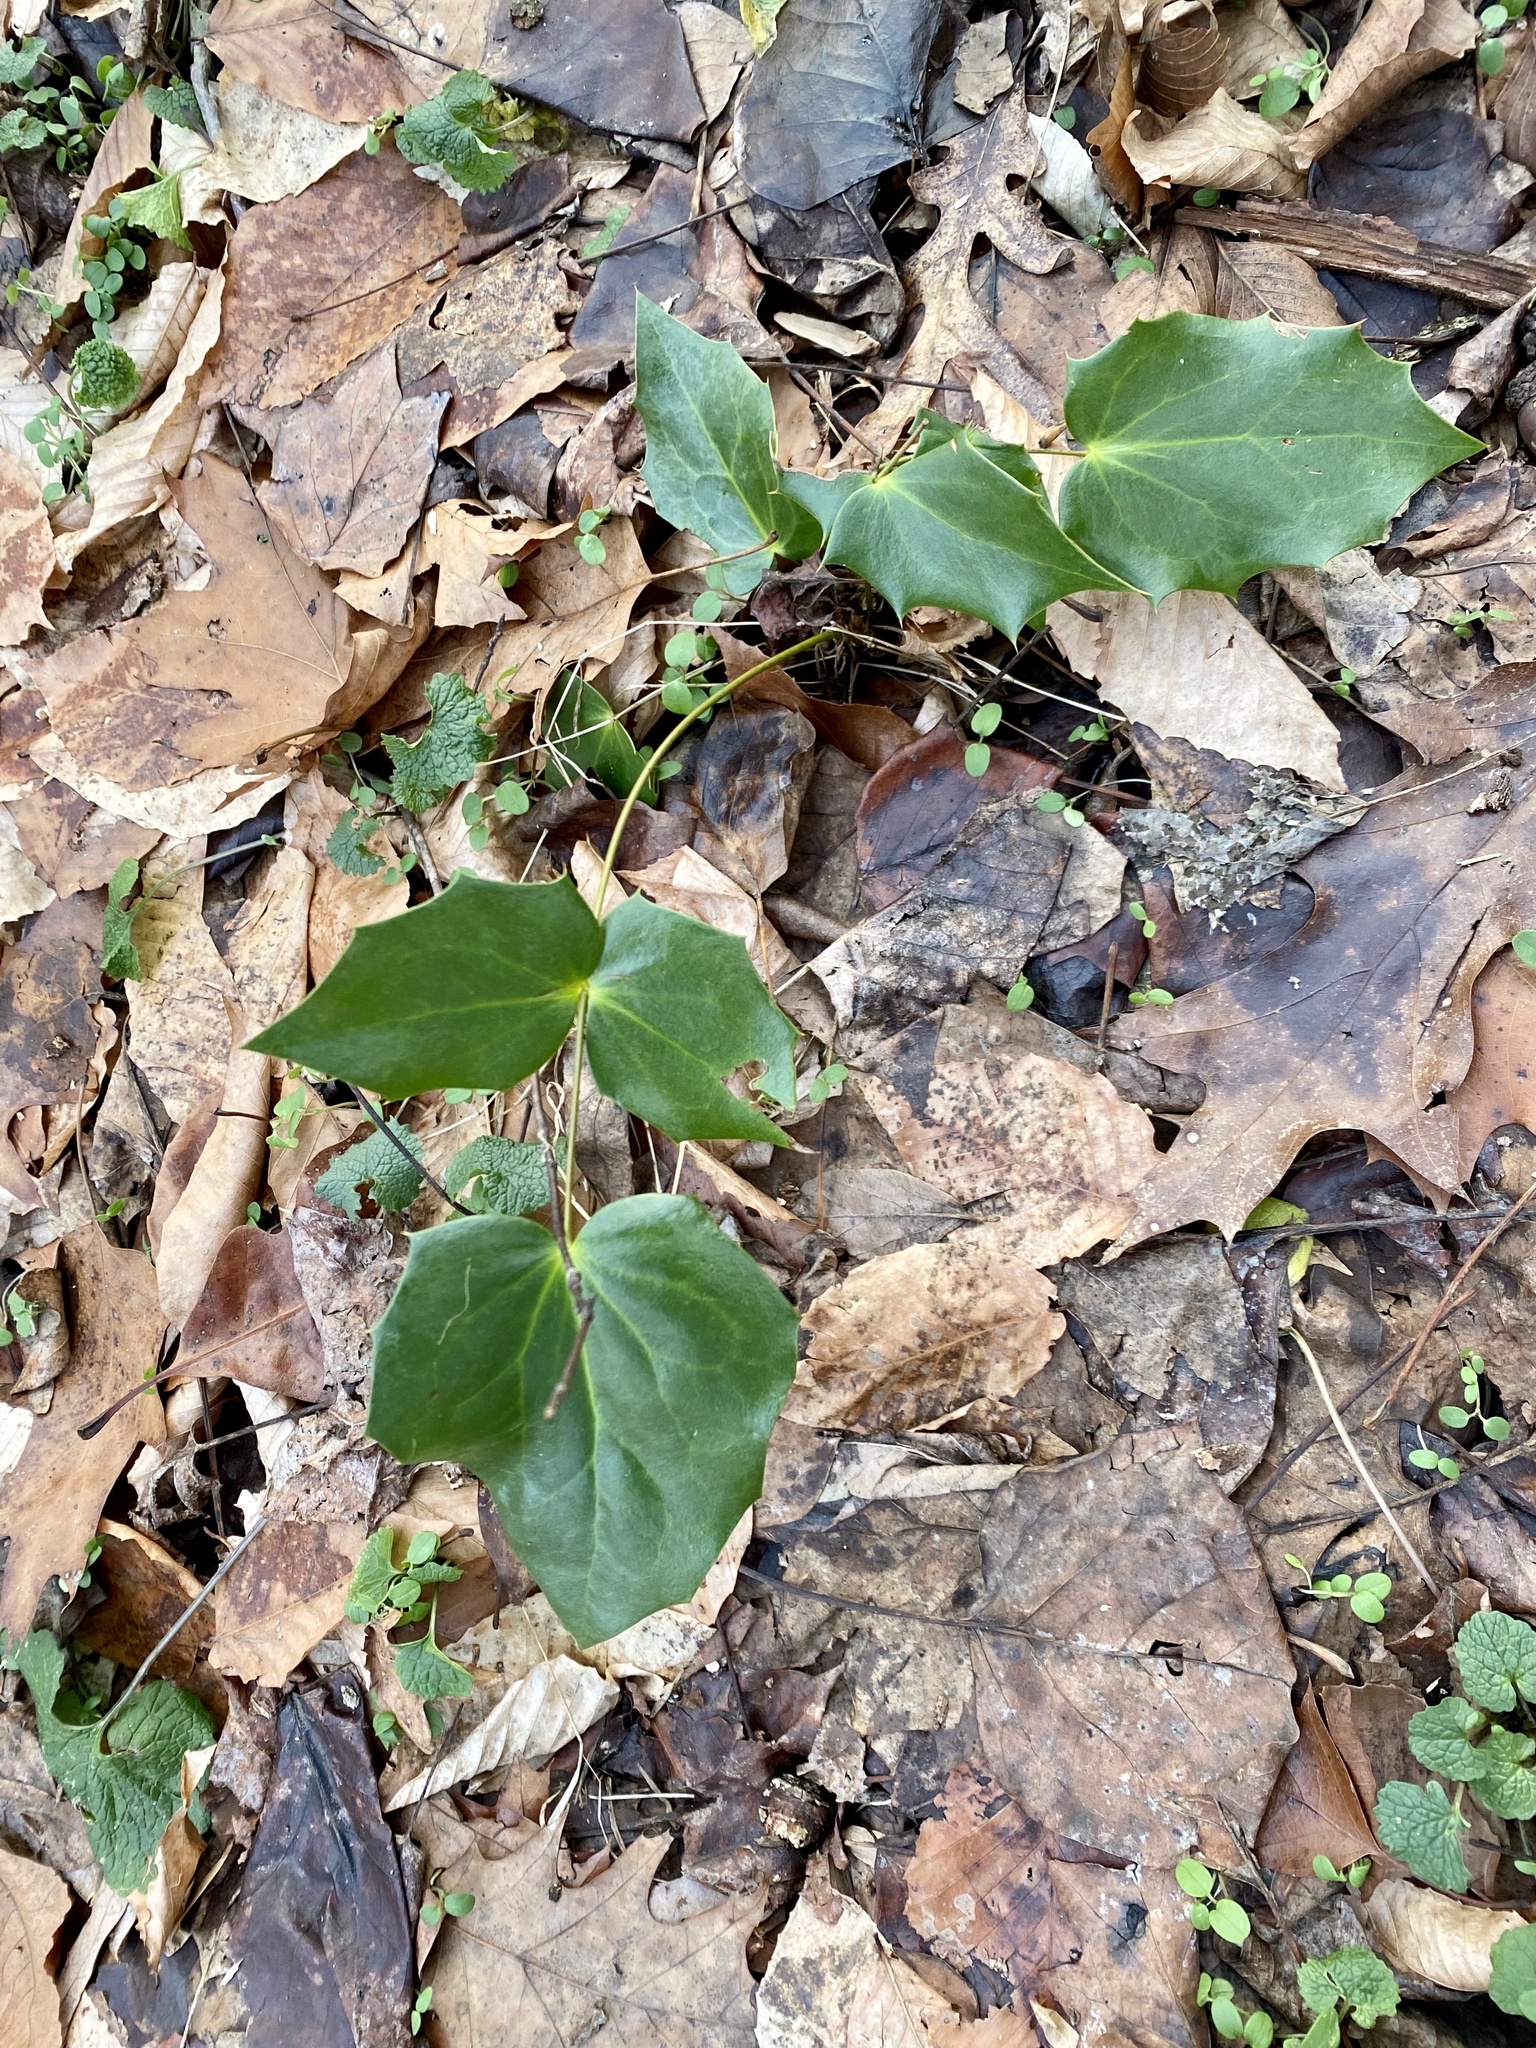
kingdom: Plantae
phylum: Tracheophyta
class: Magnoliopsida
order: Ranunculales
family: Berberidaceae
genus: Mahonia
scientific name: Mahonia bealei
